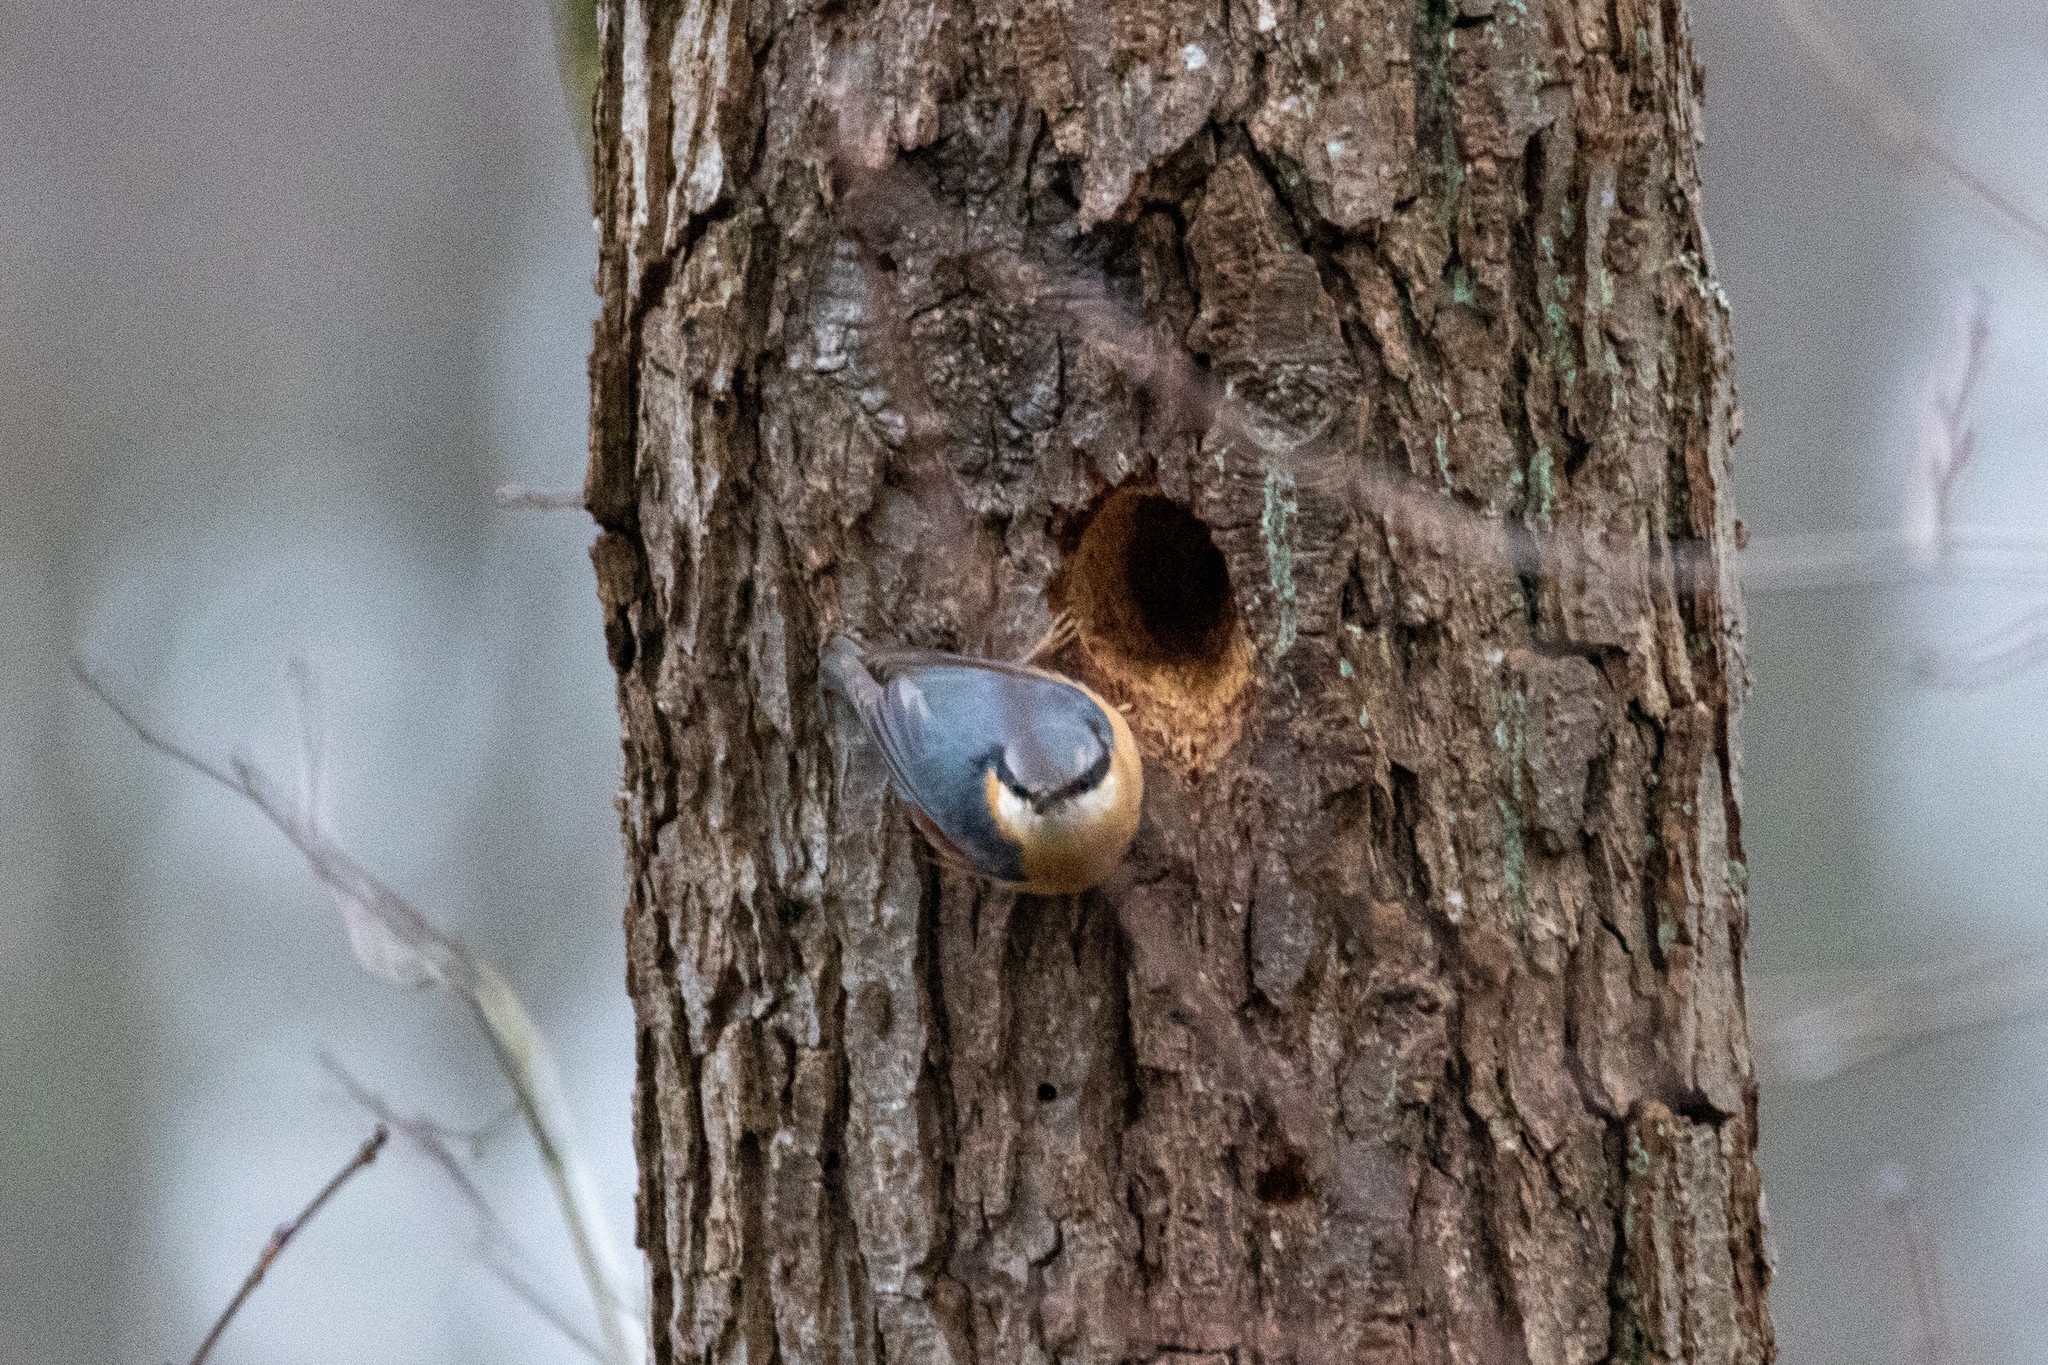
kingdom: Animalia
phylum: Chordata
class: Aves
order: Passeriformes
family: Sittidae
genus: Sitta
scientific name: Sitta europaea
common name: Eurasian nuthatch
